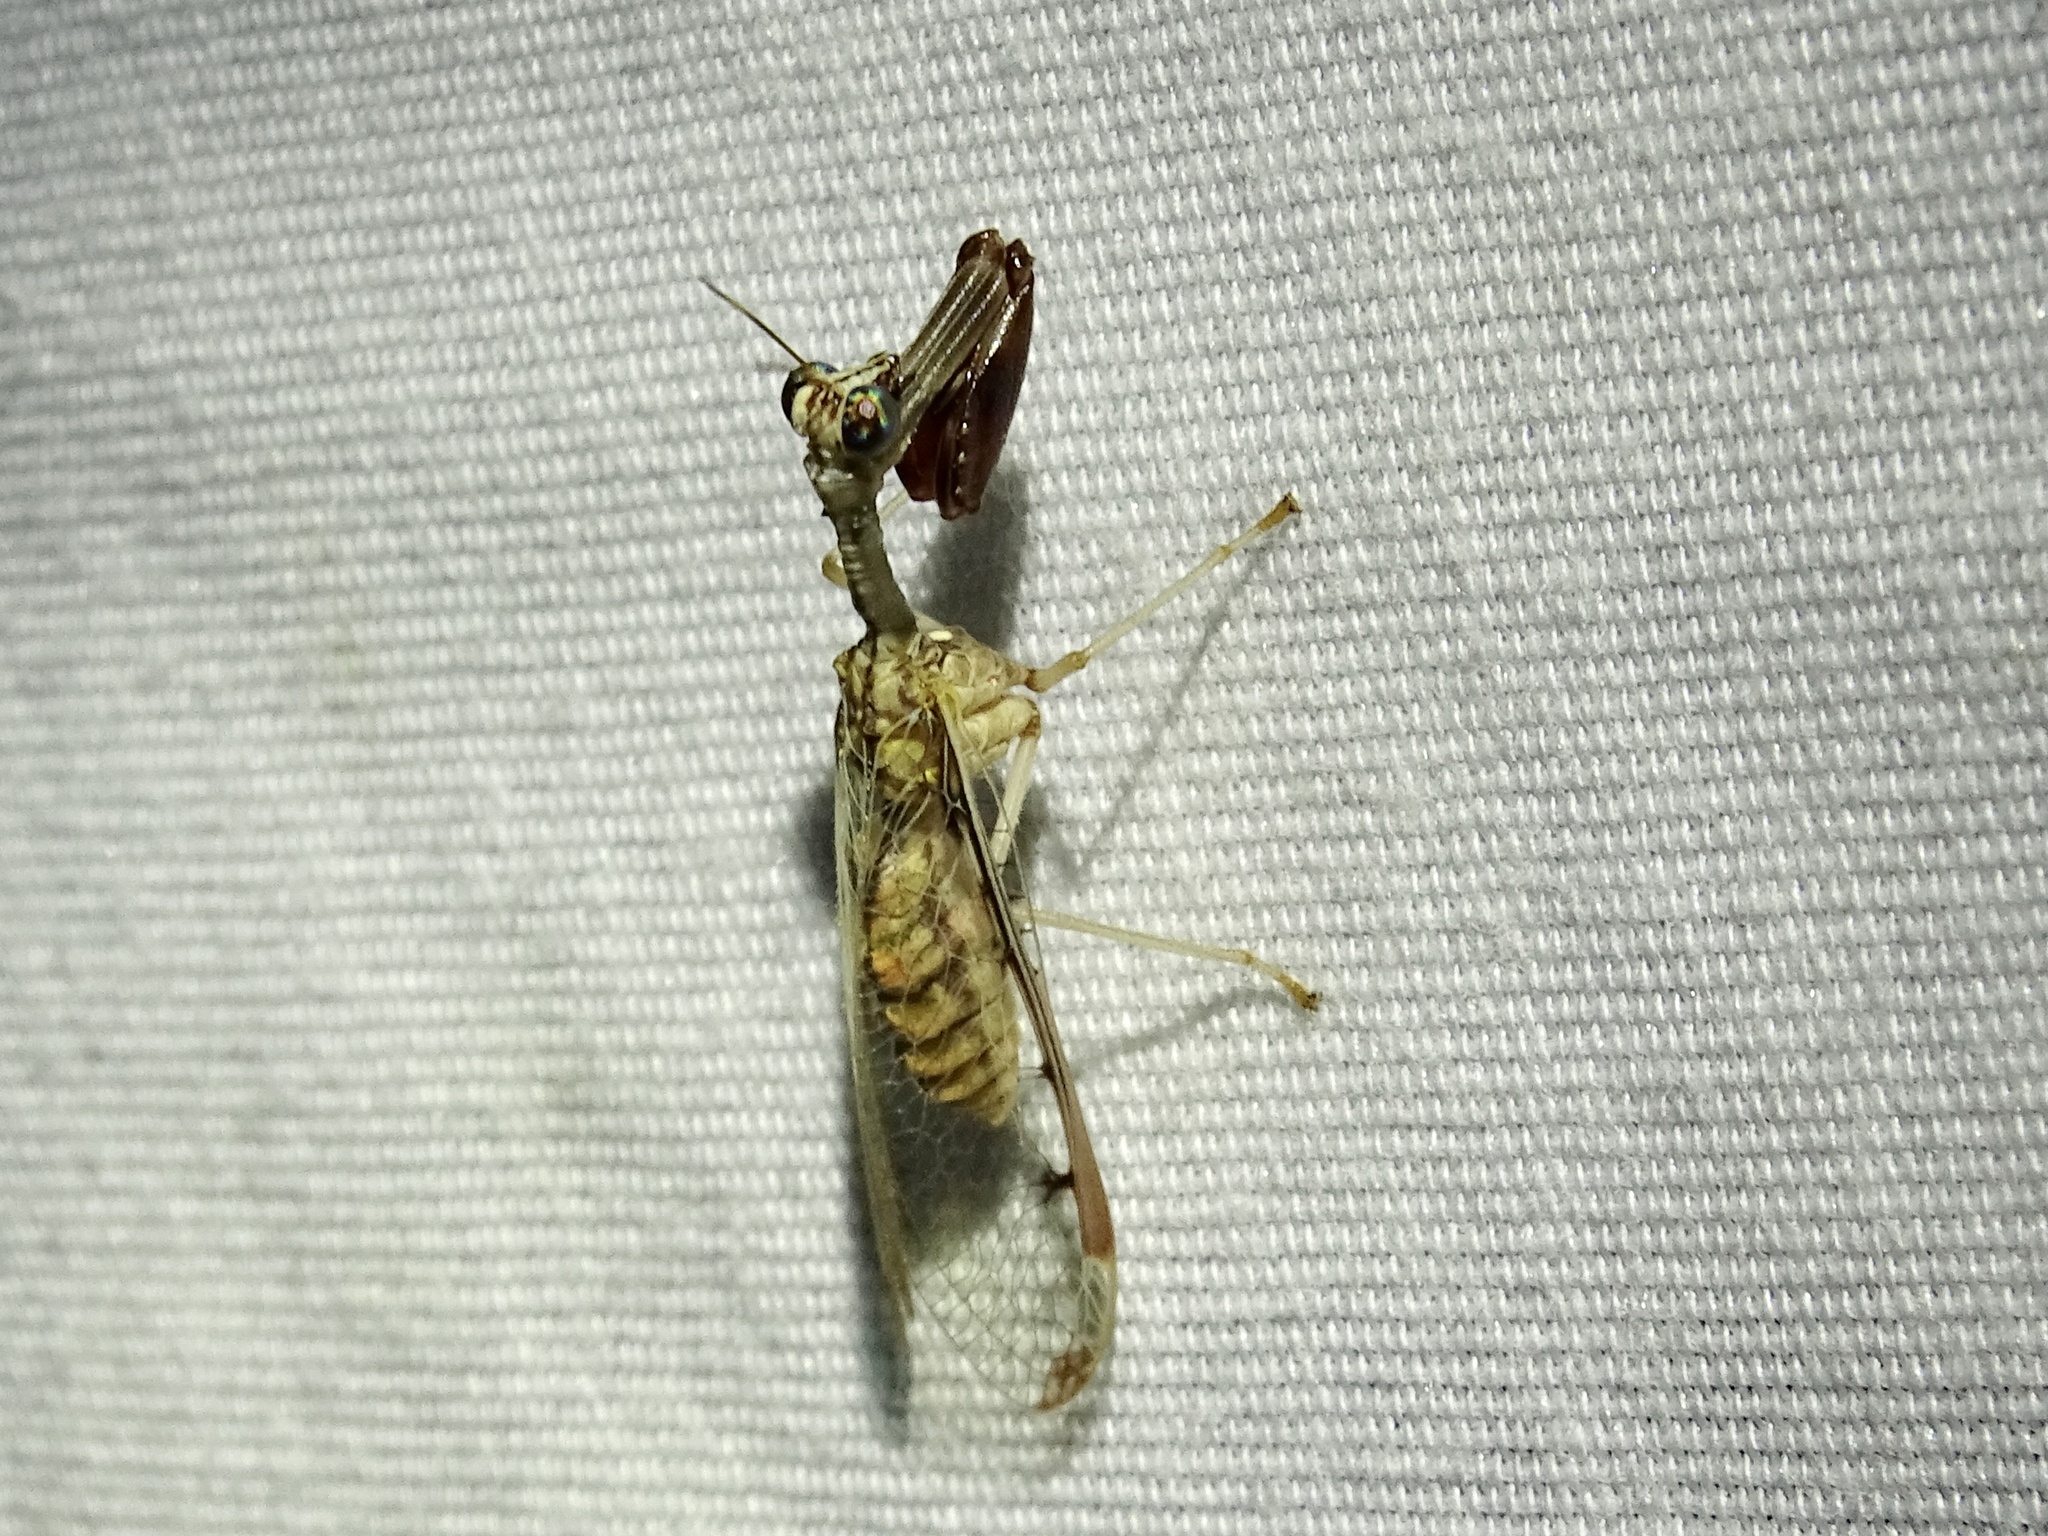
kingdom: Animalia
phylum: Arthropoda
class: Insecta
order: Neuroptera
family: Mantispidae
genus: Dicromantispa
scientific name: Dicromantispa interrupta
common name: Four-spotted mantidfly
